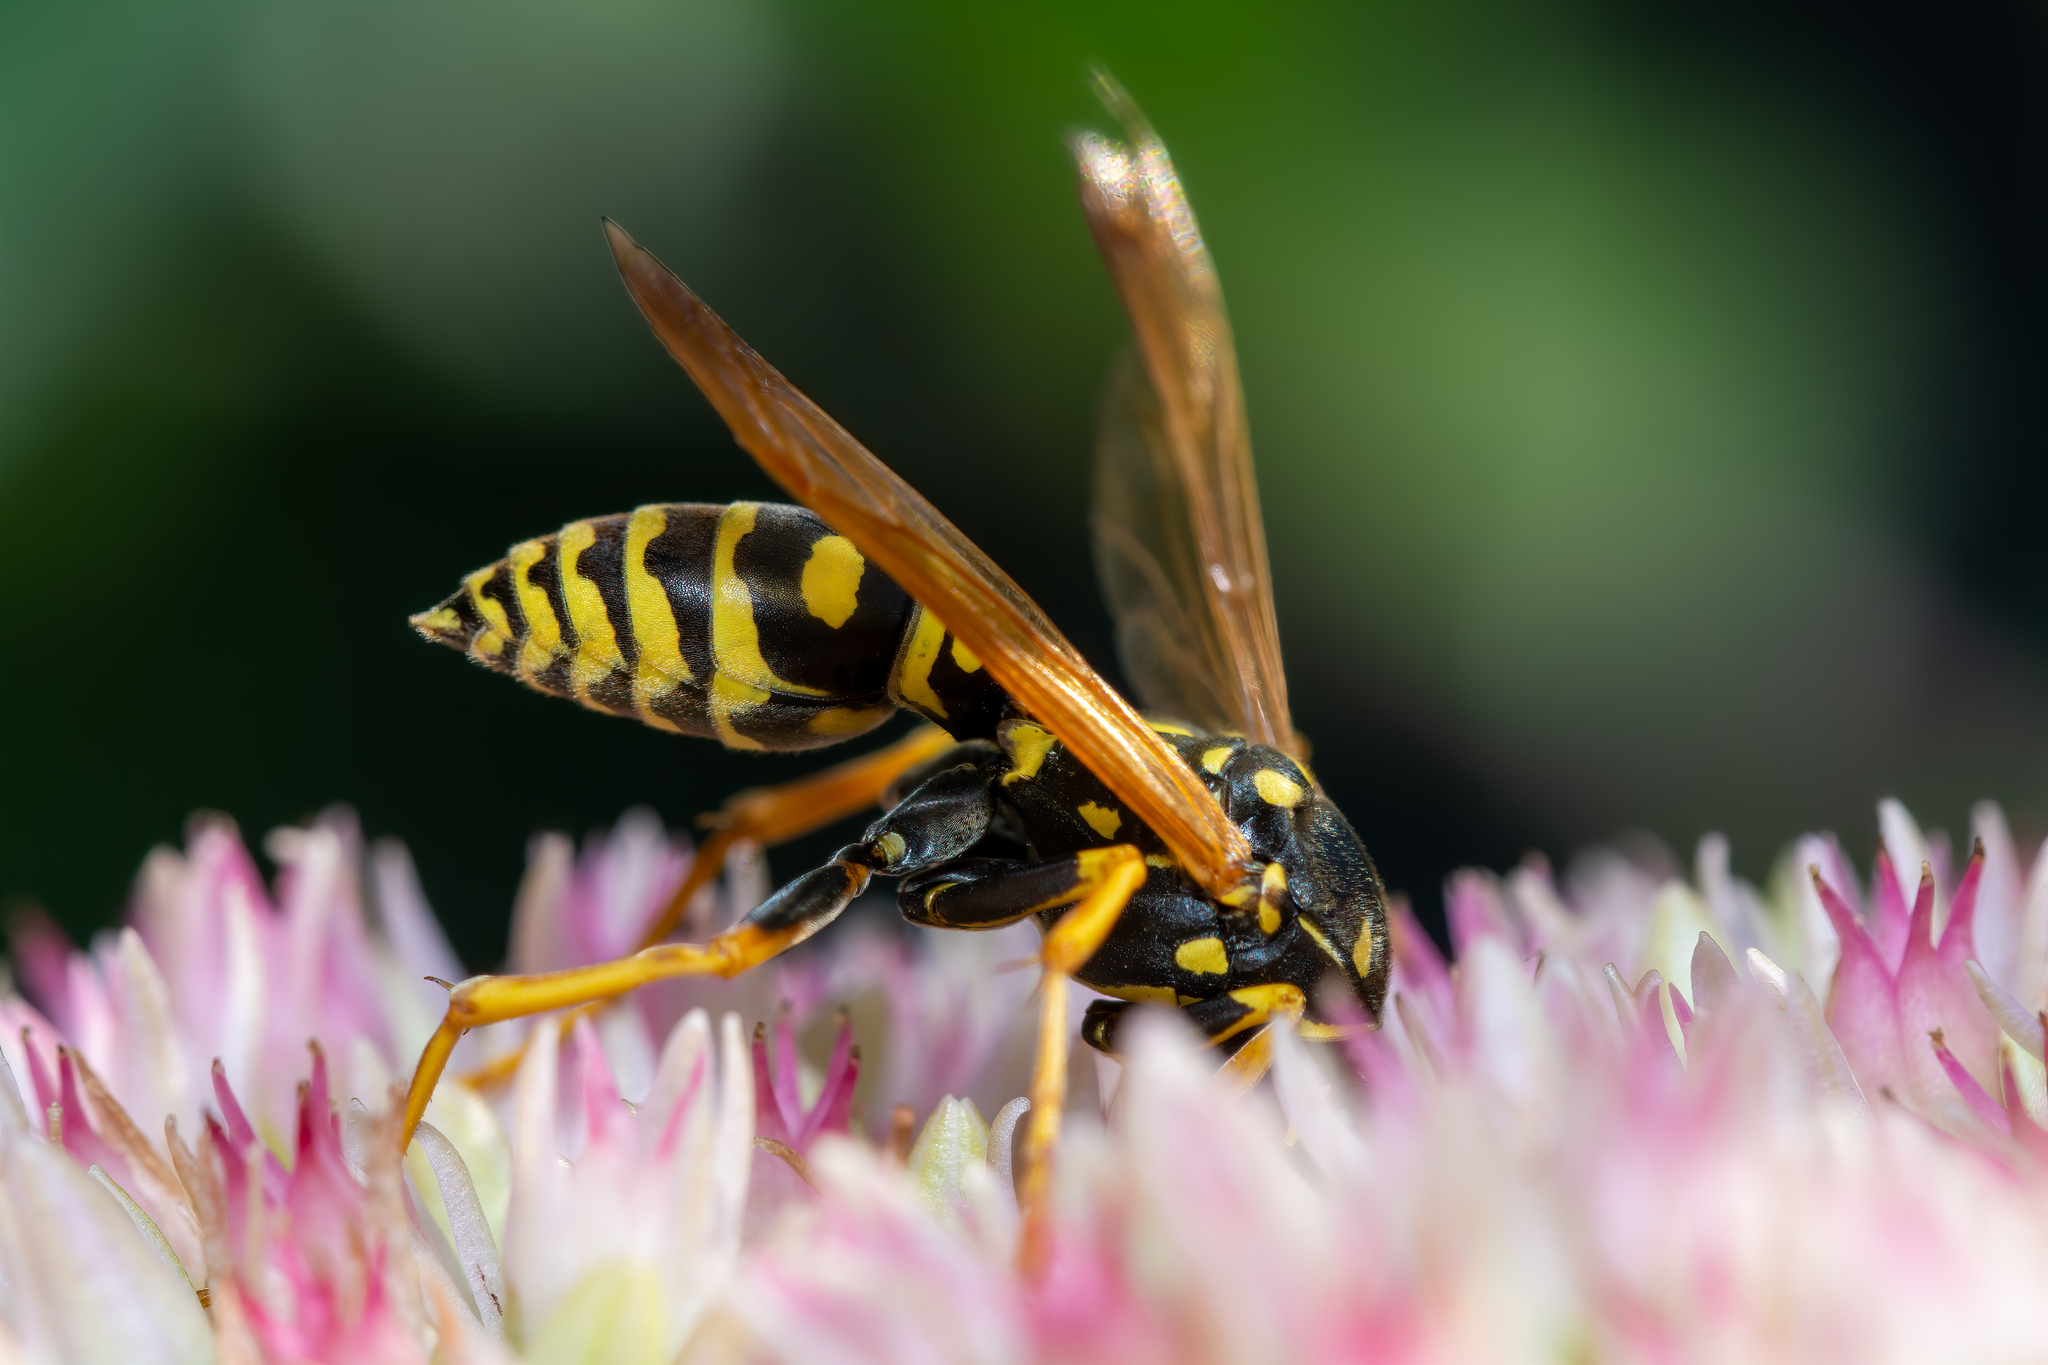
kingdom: Animalia
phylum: Arthropoda
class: Insecta
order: Hymenoptera
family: Eumenidae
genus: Polistes
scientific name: Polistes dominula
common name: Paper wasp
